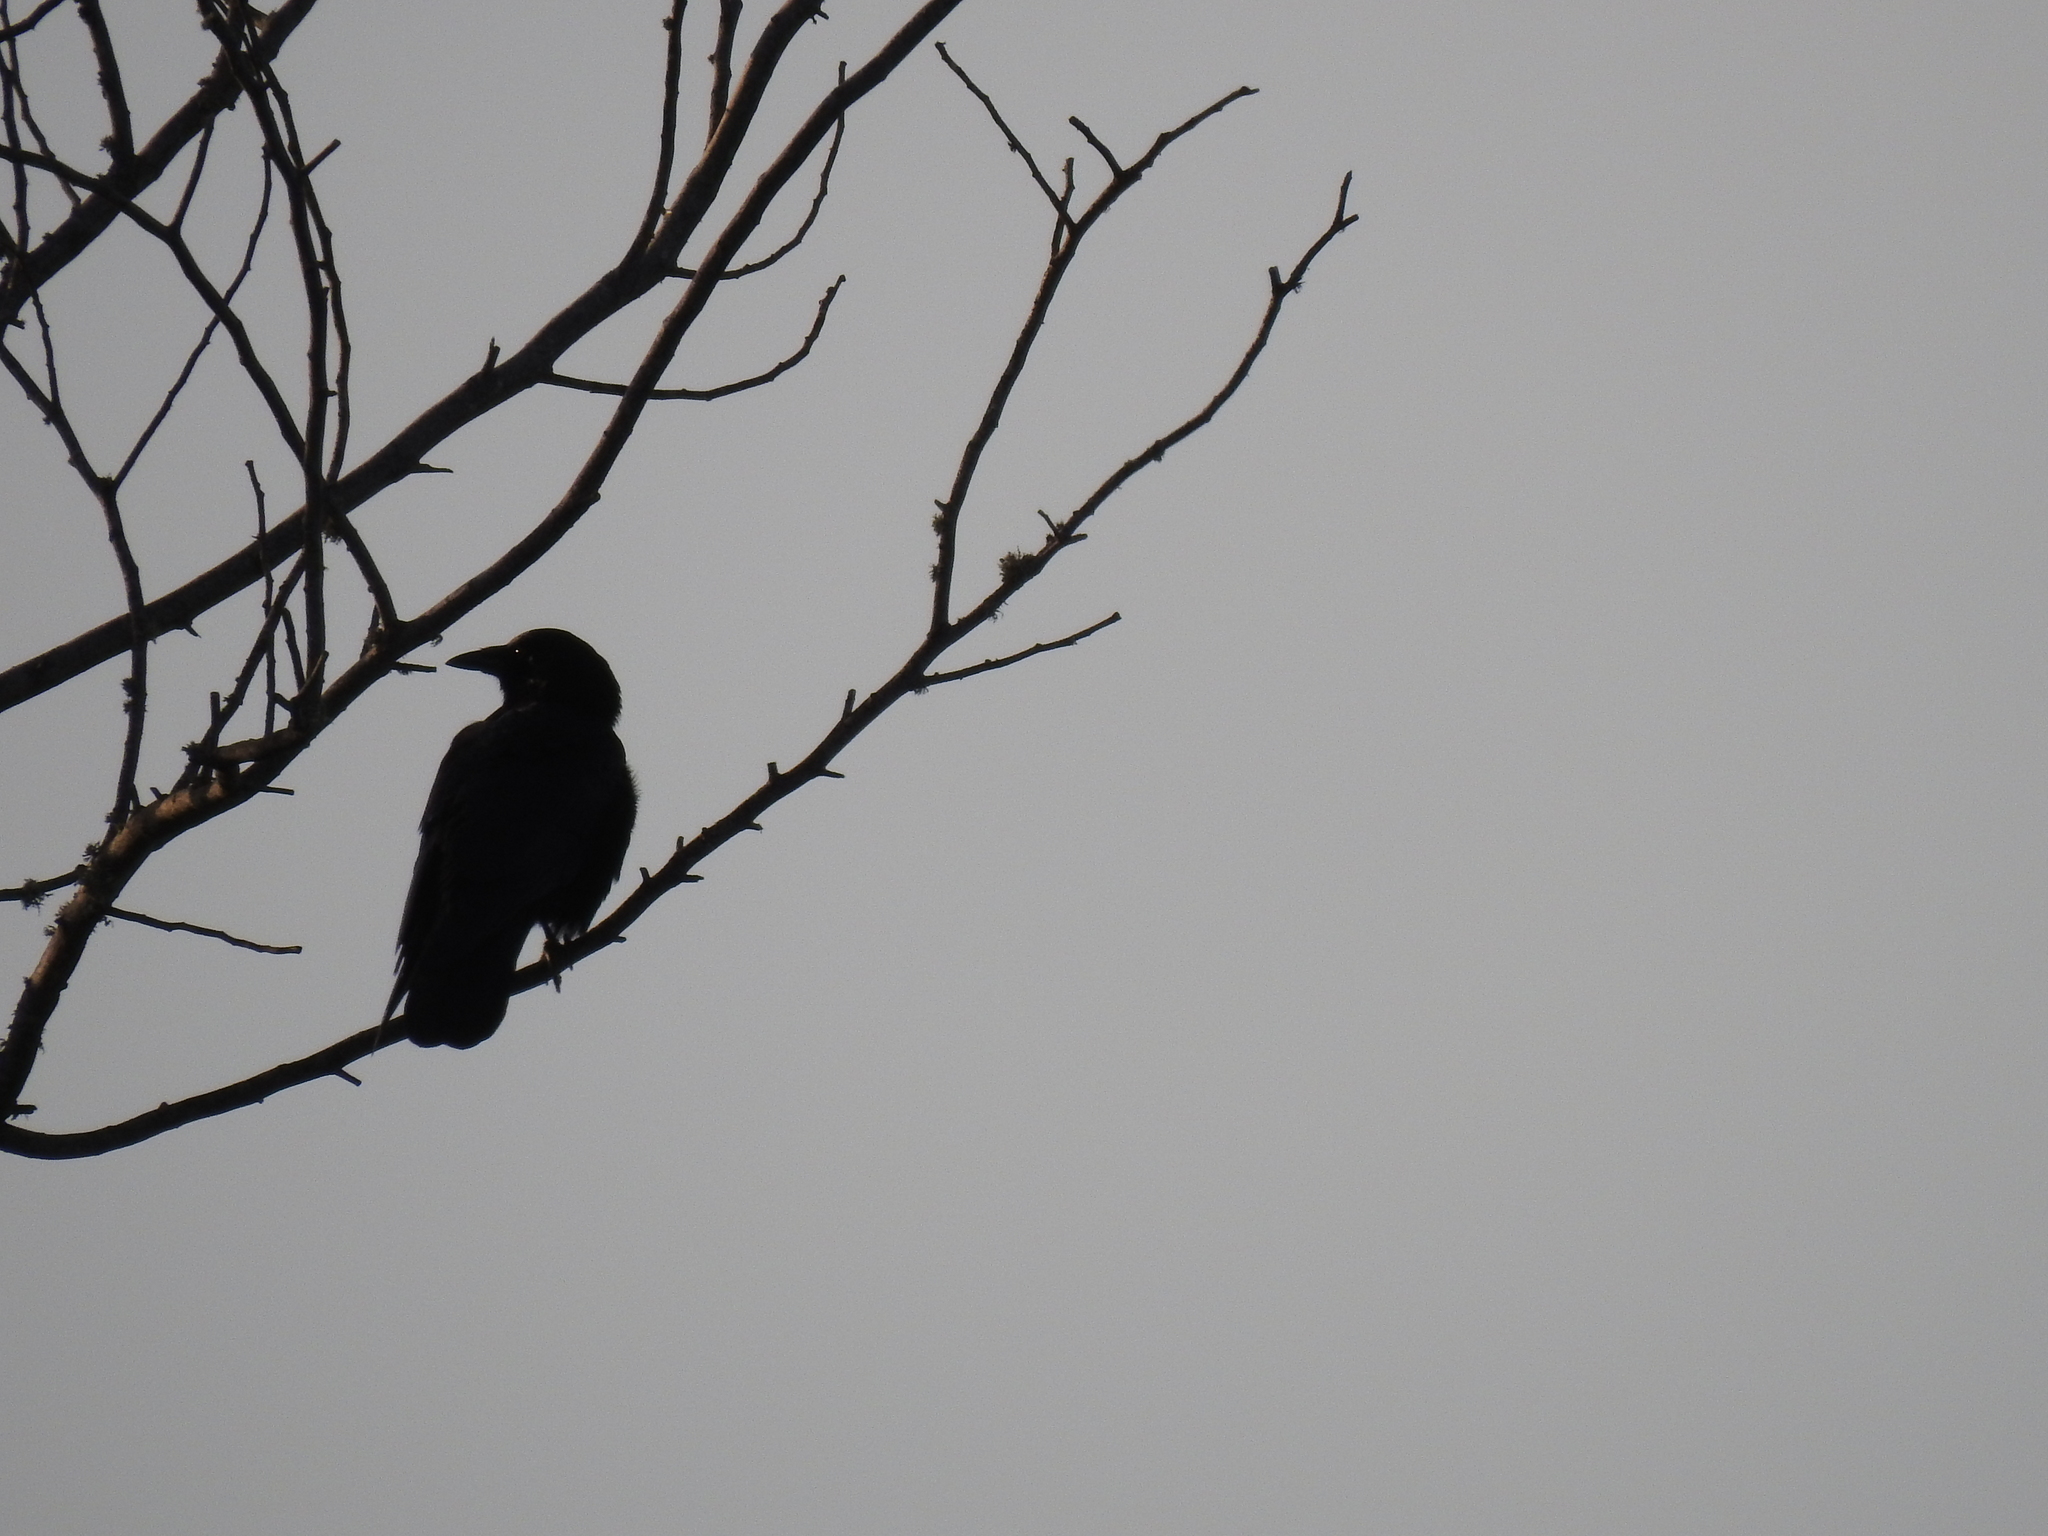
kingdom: Animalia
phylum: Chordata
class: Aves
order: Passeriformes
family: Corvidae
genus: Corvus
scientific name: Corvus brachyrhynchos
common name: American crow
